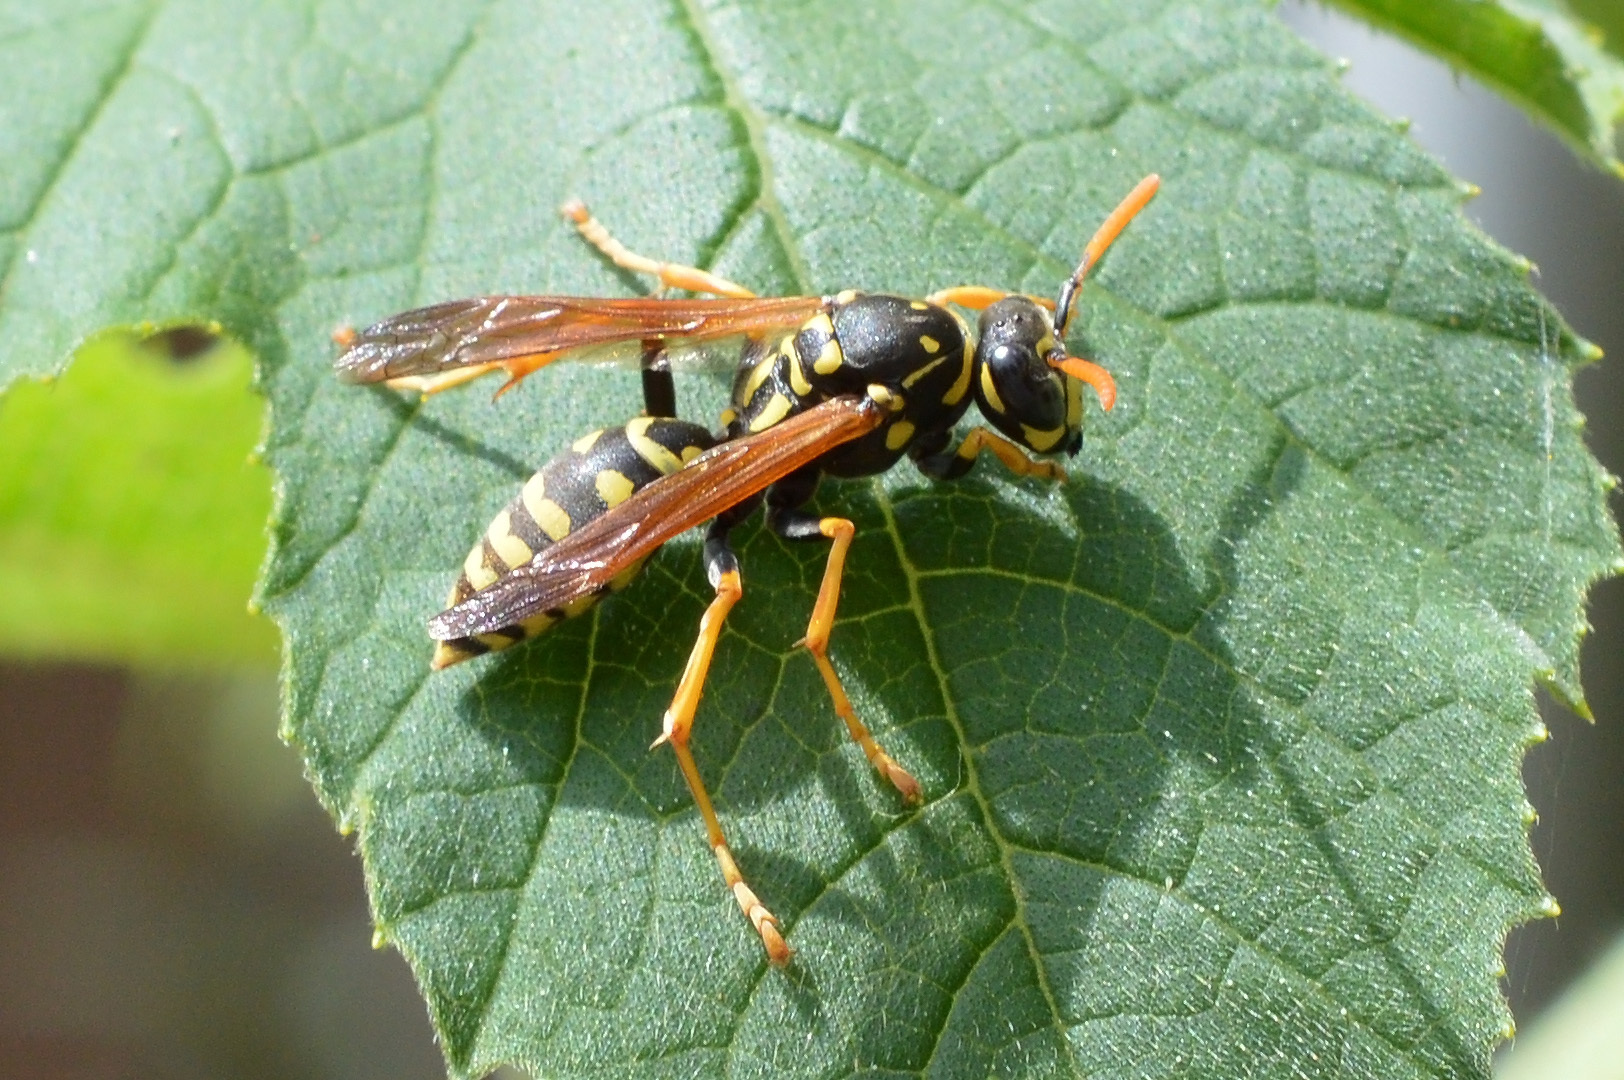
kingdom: Animalia
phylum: Arthropoda
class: Insecta
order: Hymenoptera
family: Eumenidae
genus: Polistes
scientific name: Polistes dominula
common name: Paper wasp
